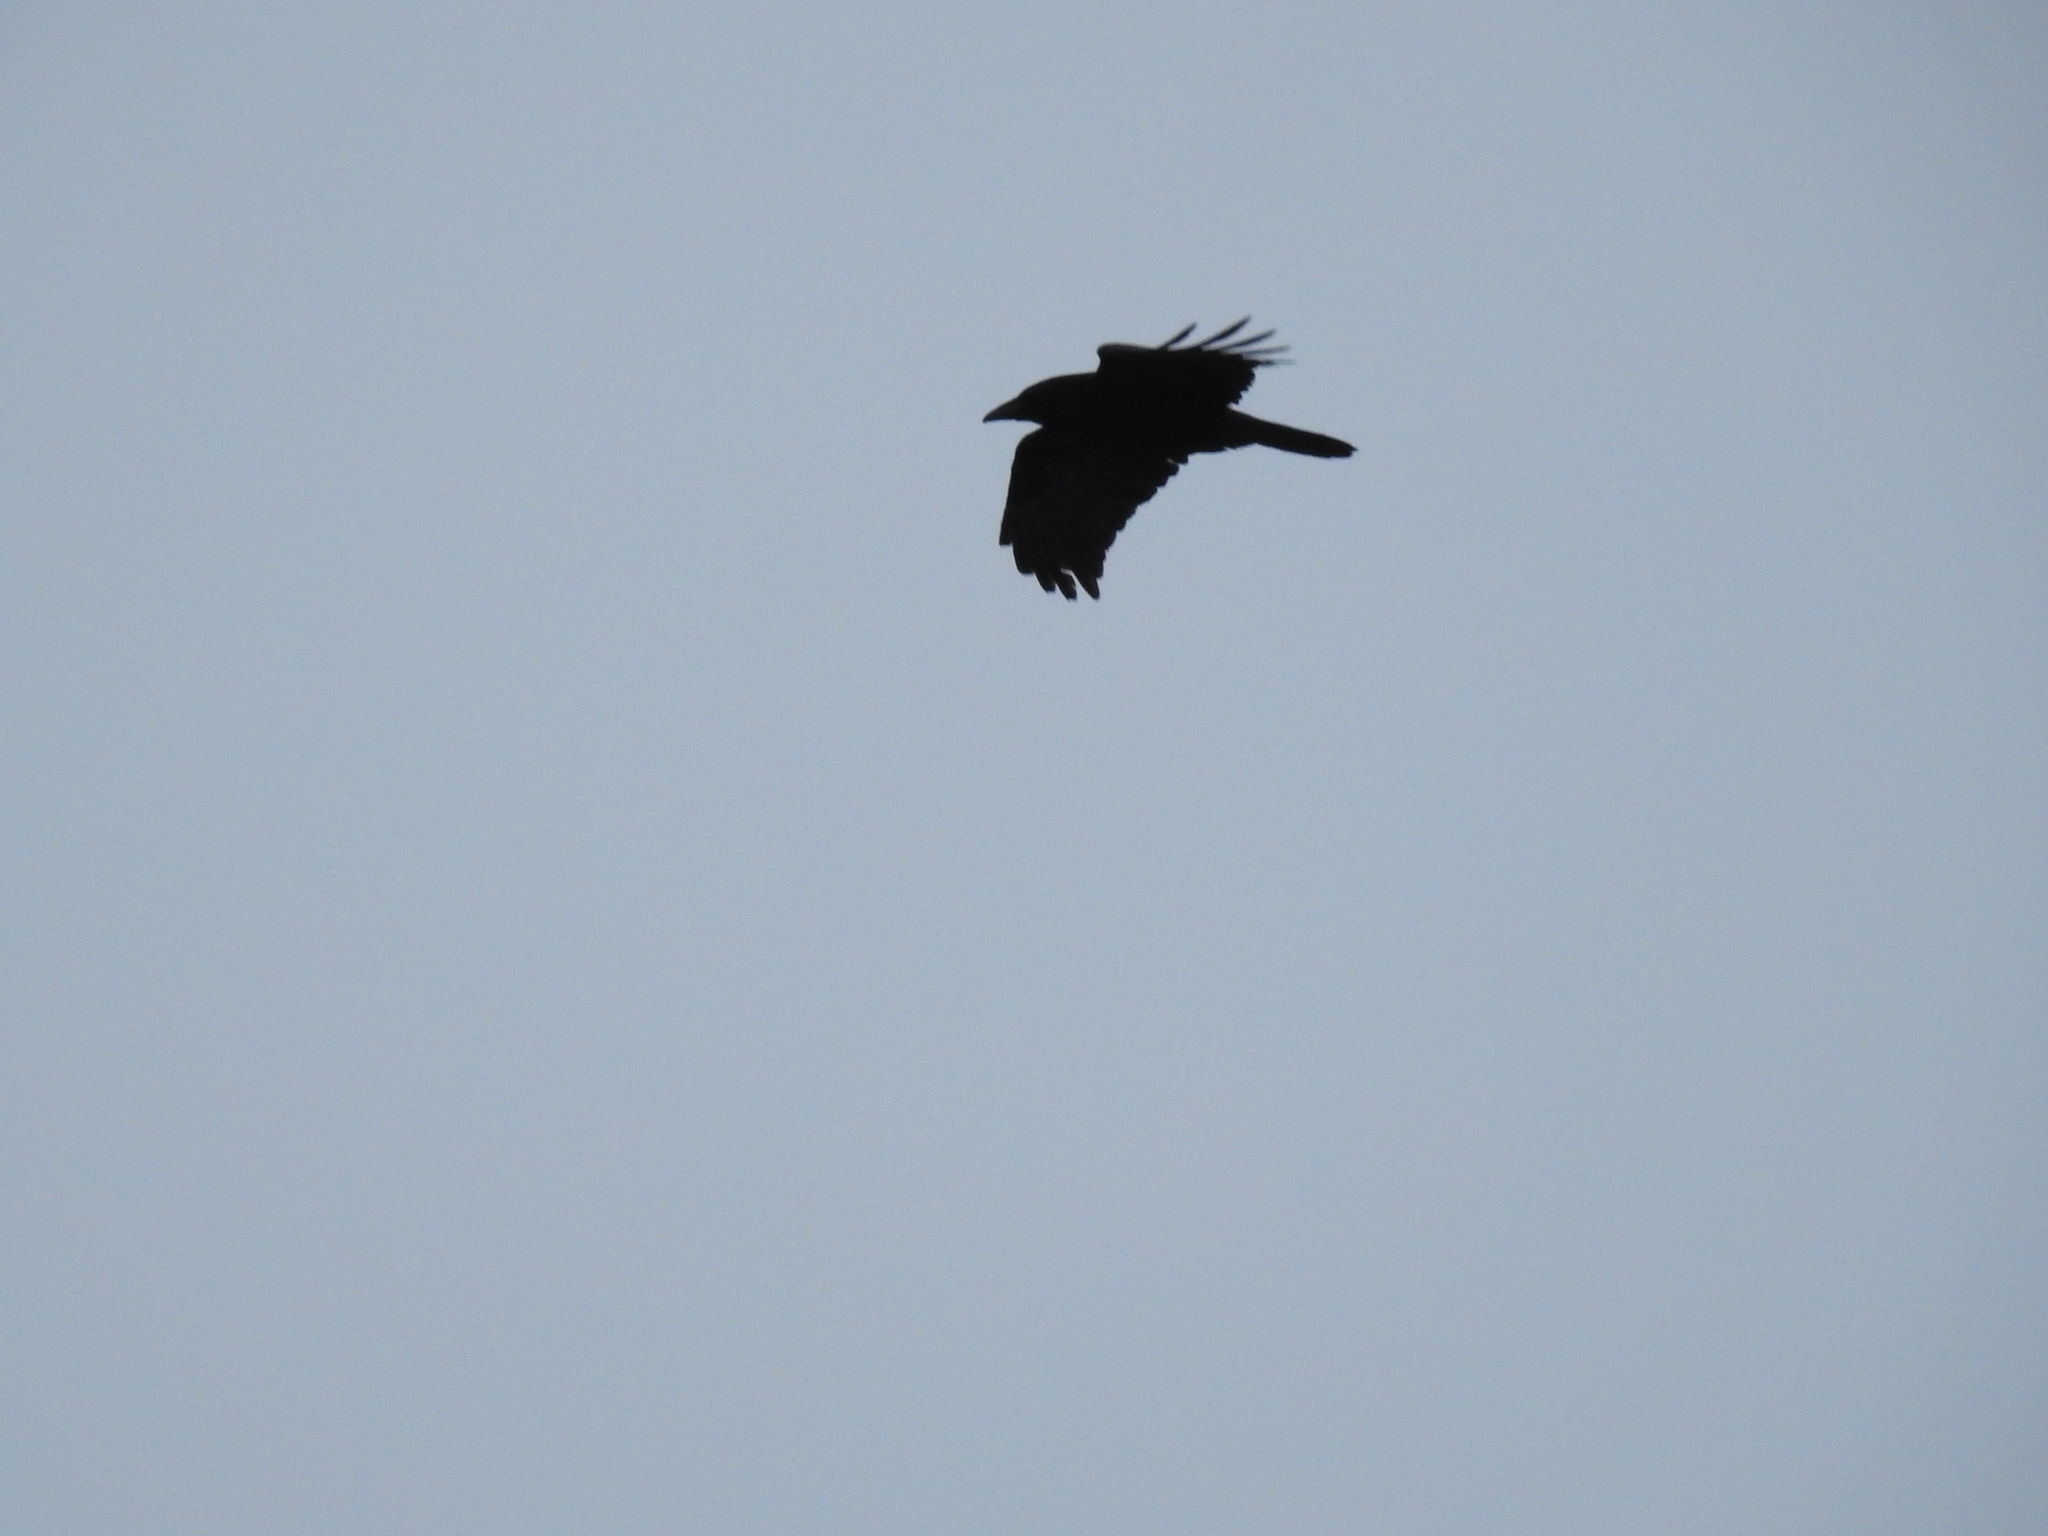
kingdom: Animalia
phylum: Chordata
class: Aves
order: Passeriformes
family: Corvidae
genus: Corvus
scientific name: Corvus corax
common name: Common raven
